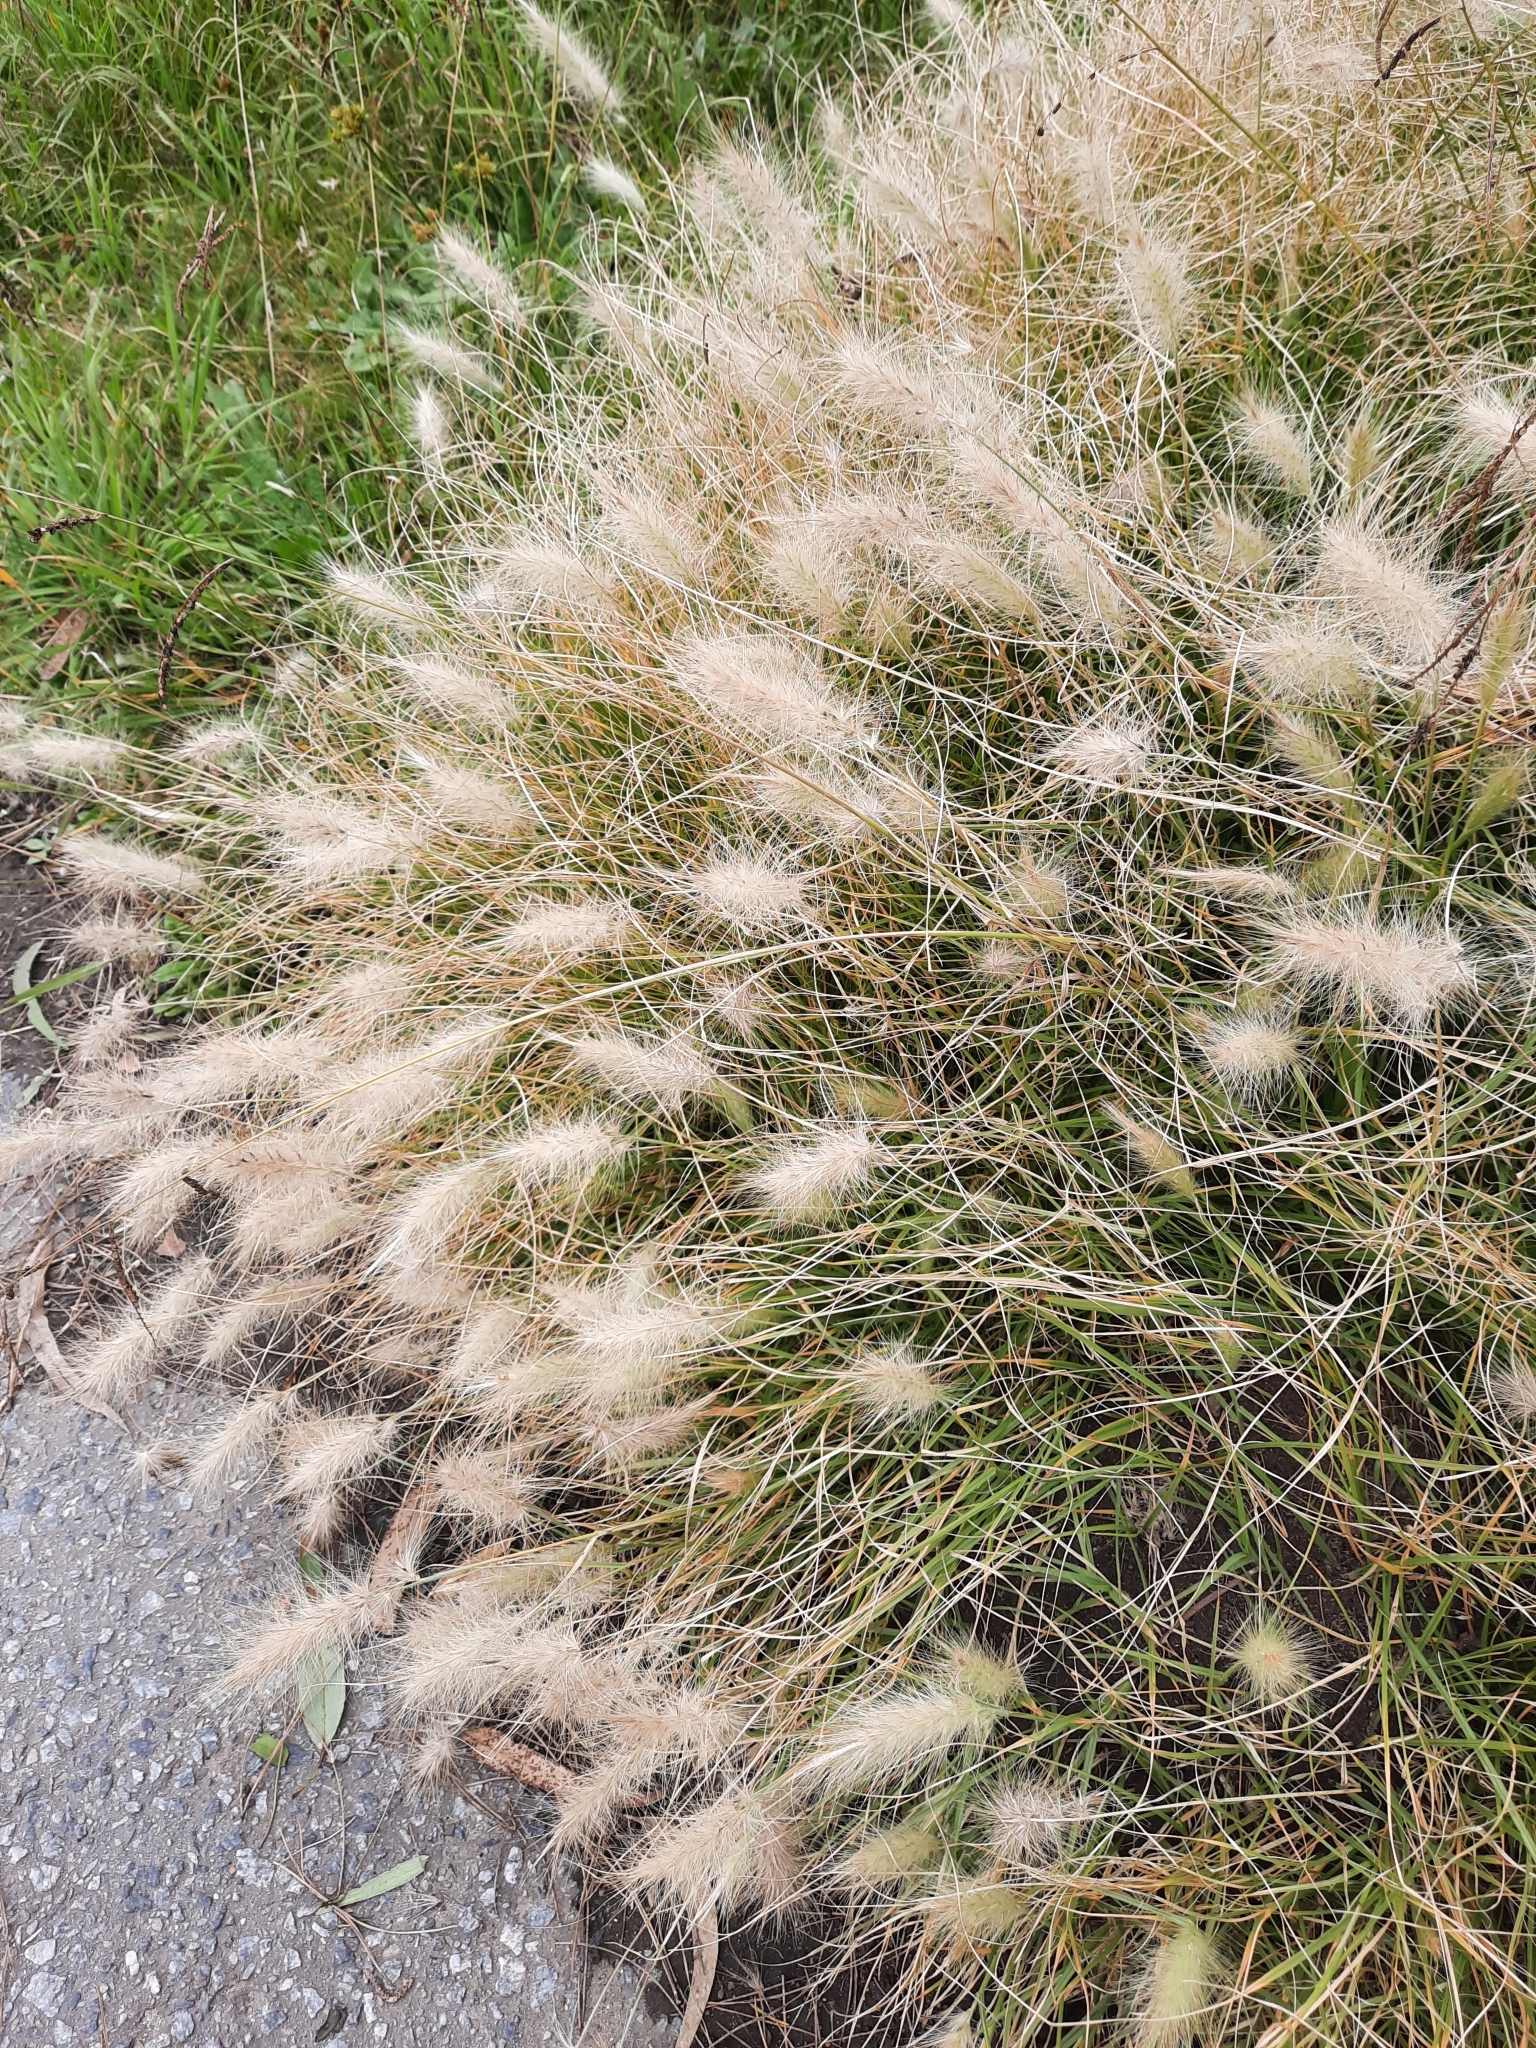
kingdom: Plantae
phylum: Tracheophyta
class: Liliopsida
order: Poales
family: Poaceae
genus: Cenchrus
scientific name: Cenchrus longisetus
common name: Feathertop
